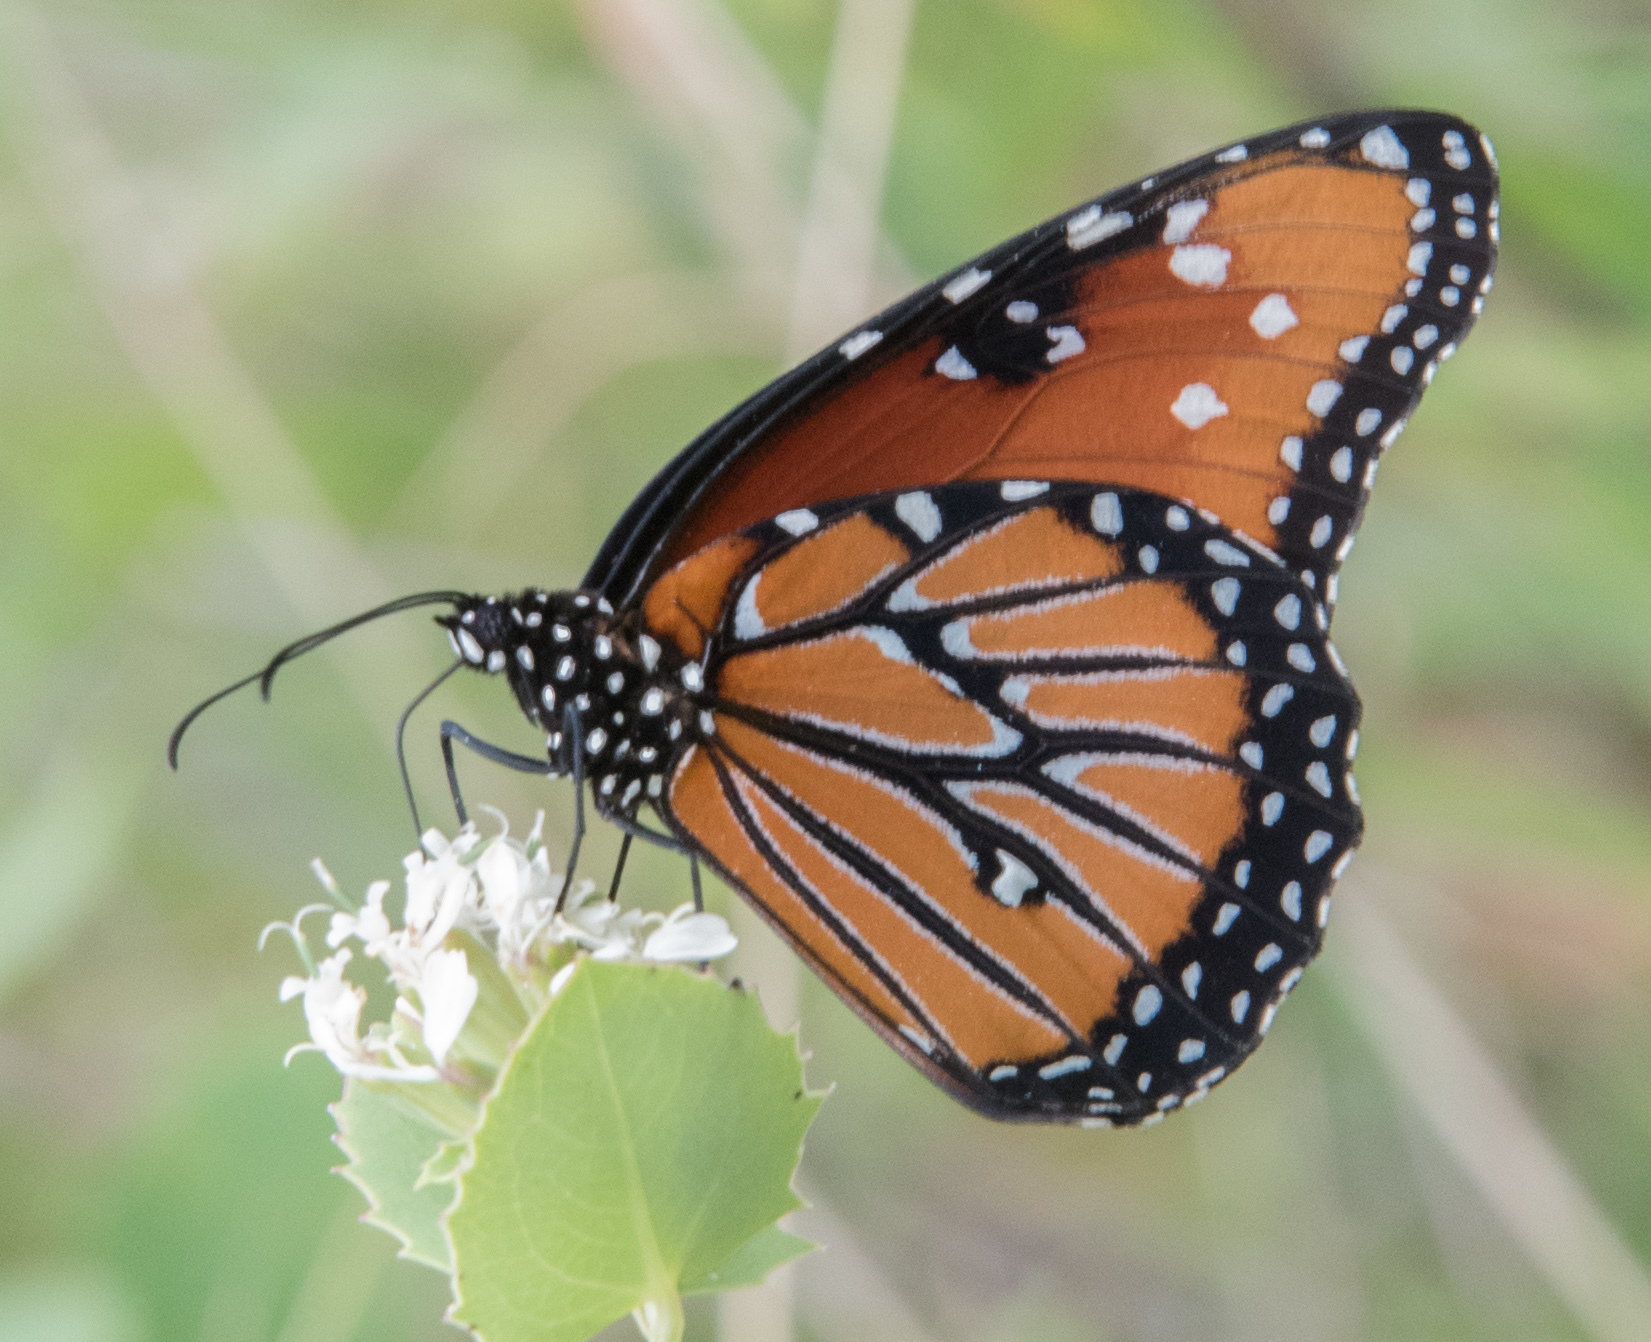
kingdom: Animalia
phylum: Arthropoda
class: Insecta
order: Lepidoptera
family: Nymphalidae
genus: Danaus
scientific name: Danaus gilippus
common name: Queen
